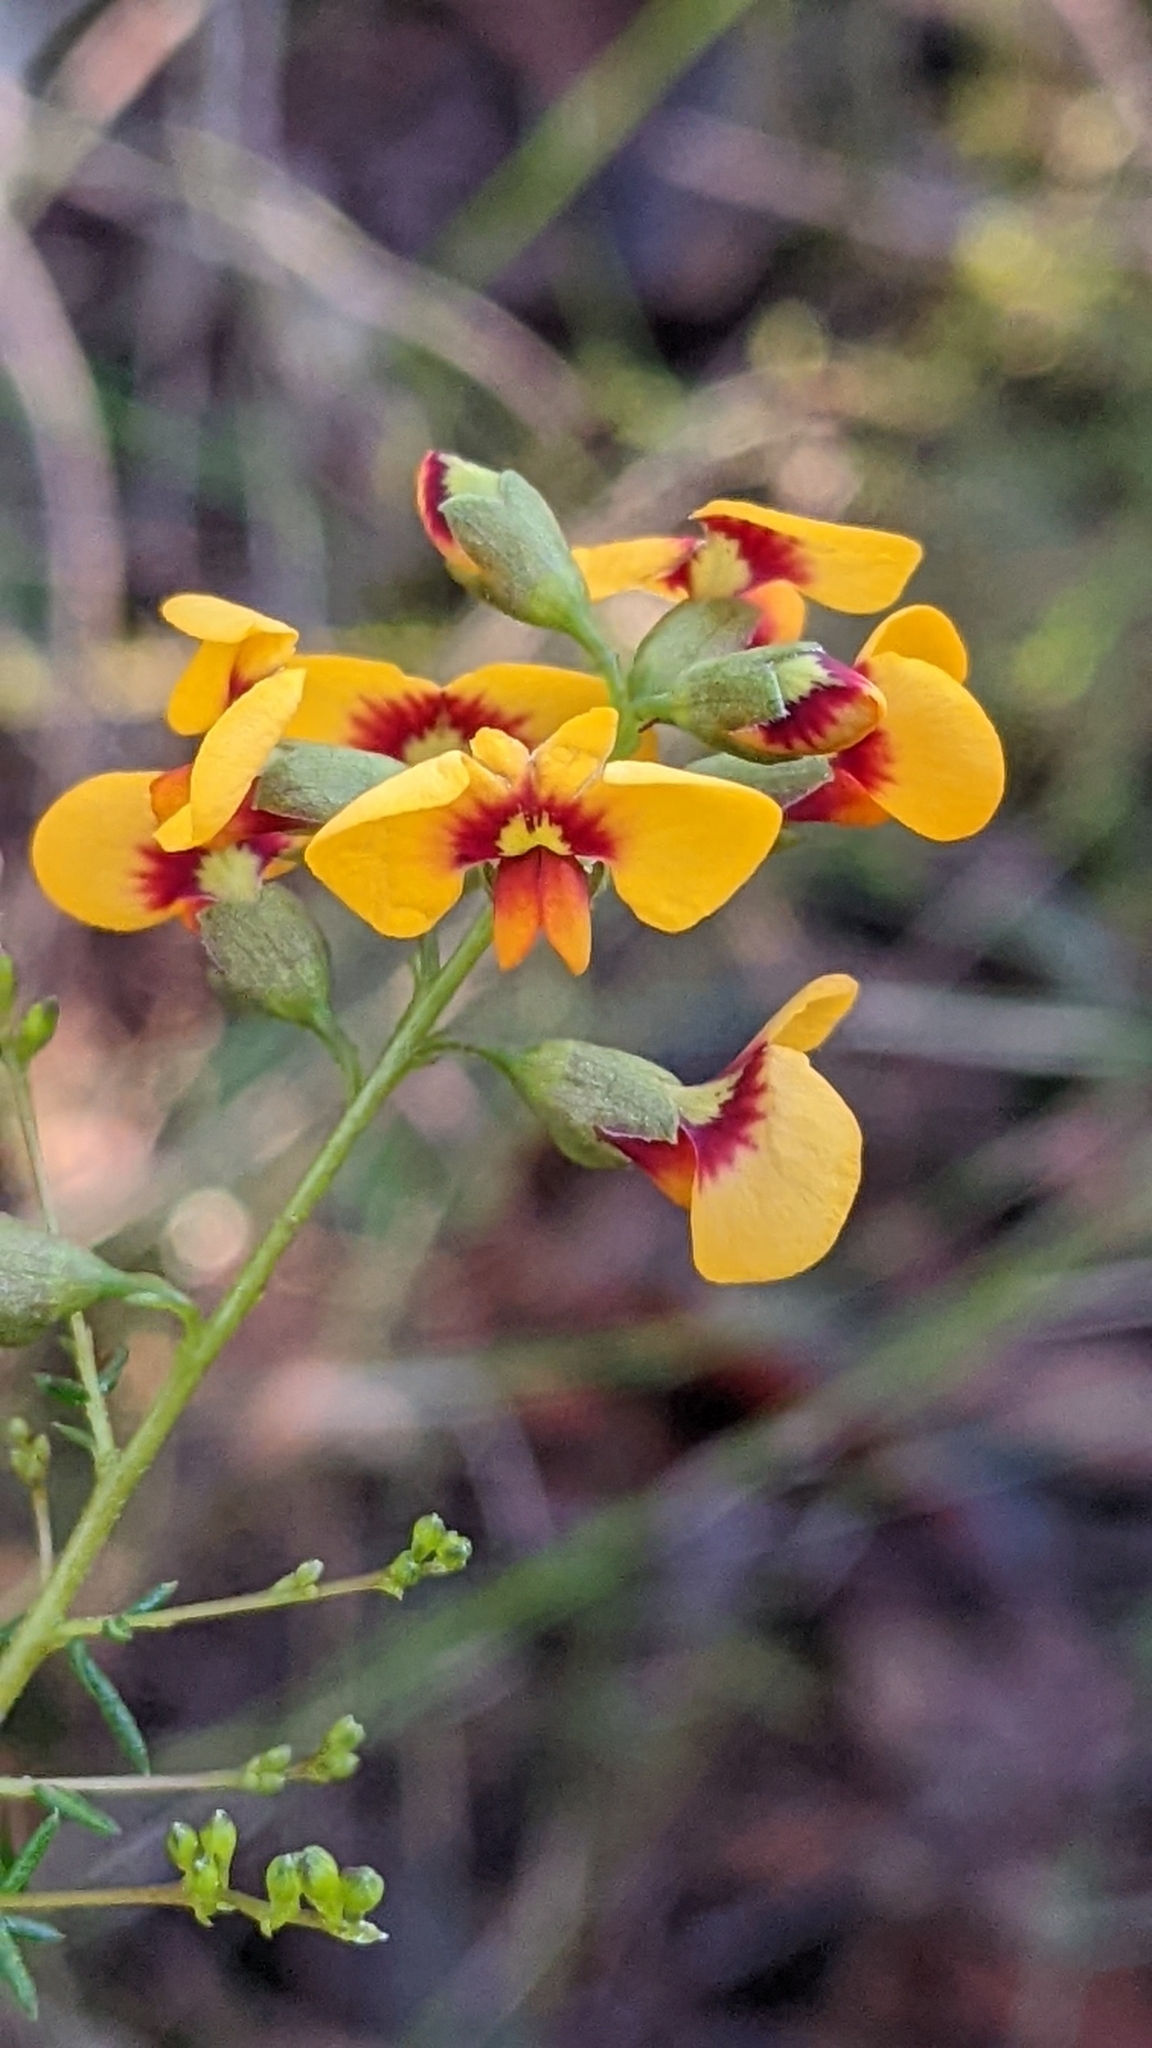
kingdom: Plantae
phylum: Tracheophyta
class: Magnoliopsida
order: Fabales
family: Fabaceae
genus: Dillwynia
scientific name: Dillwynia retorta
